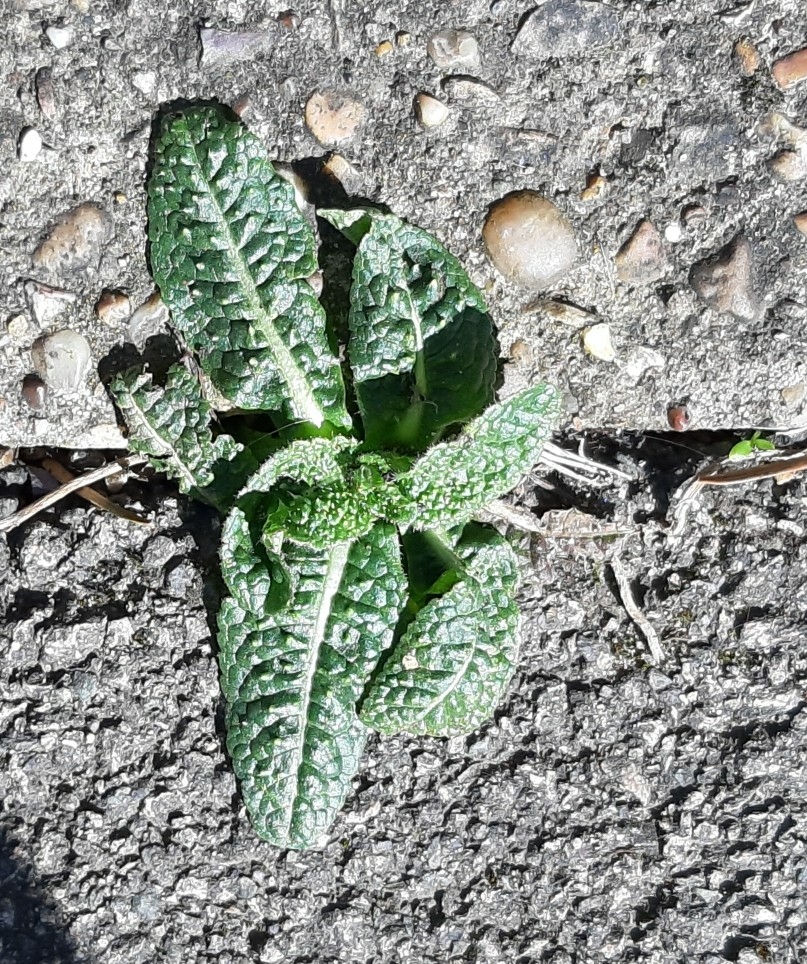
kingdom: Plantae
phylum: Tracheophyta
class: Magnoliopsida
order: Dipsacales
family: Caprifoliaceae
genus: Dipsacus
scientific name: Dipsacus fullonum
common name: Teasel
